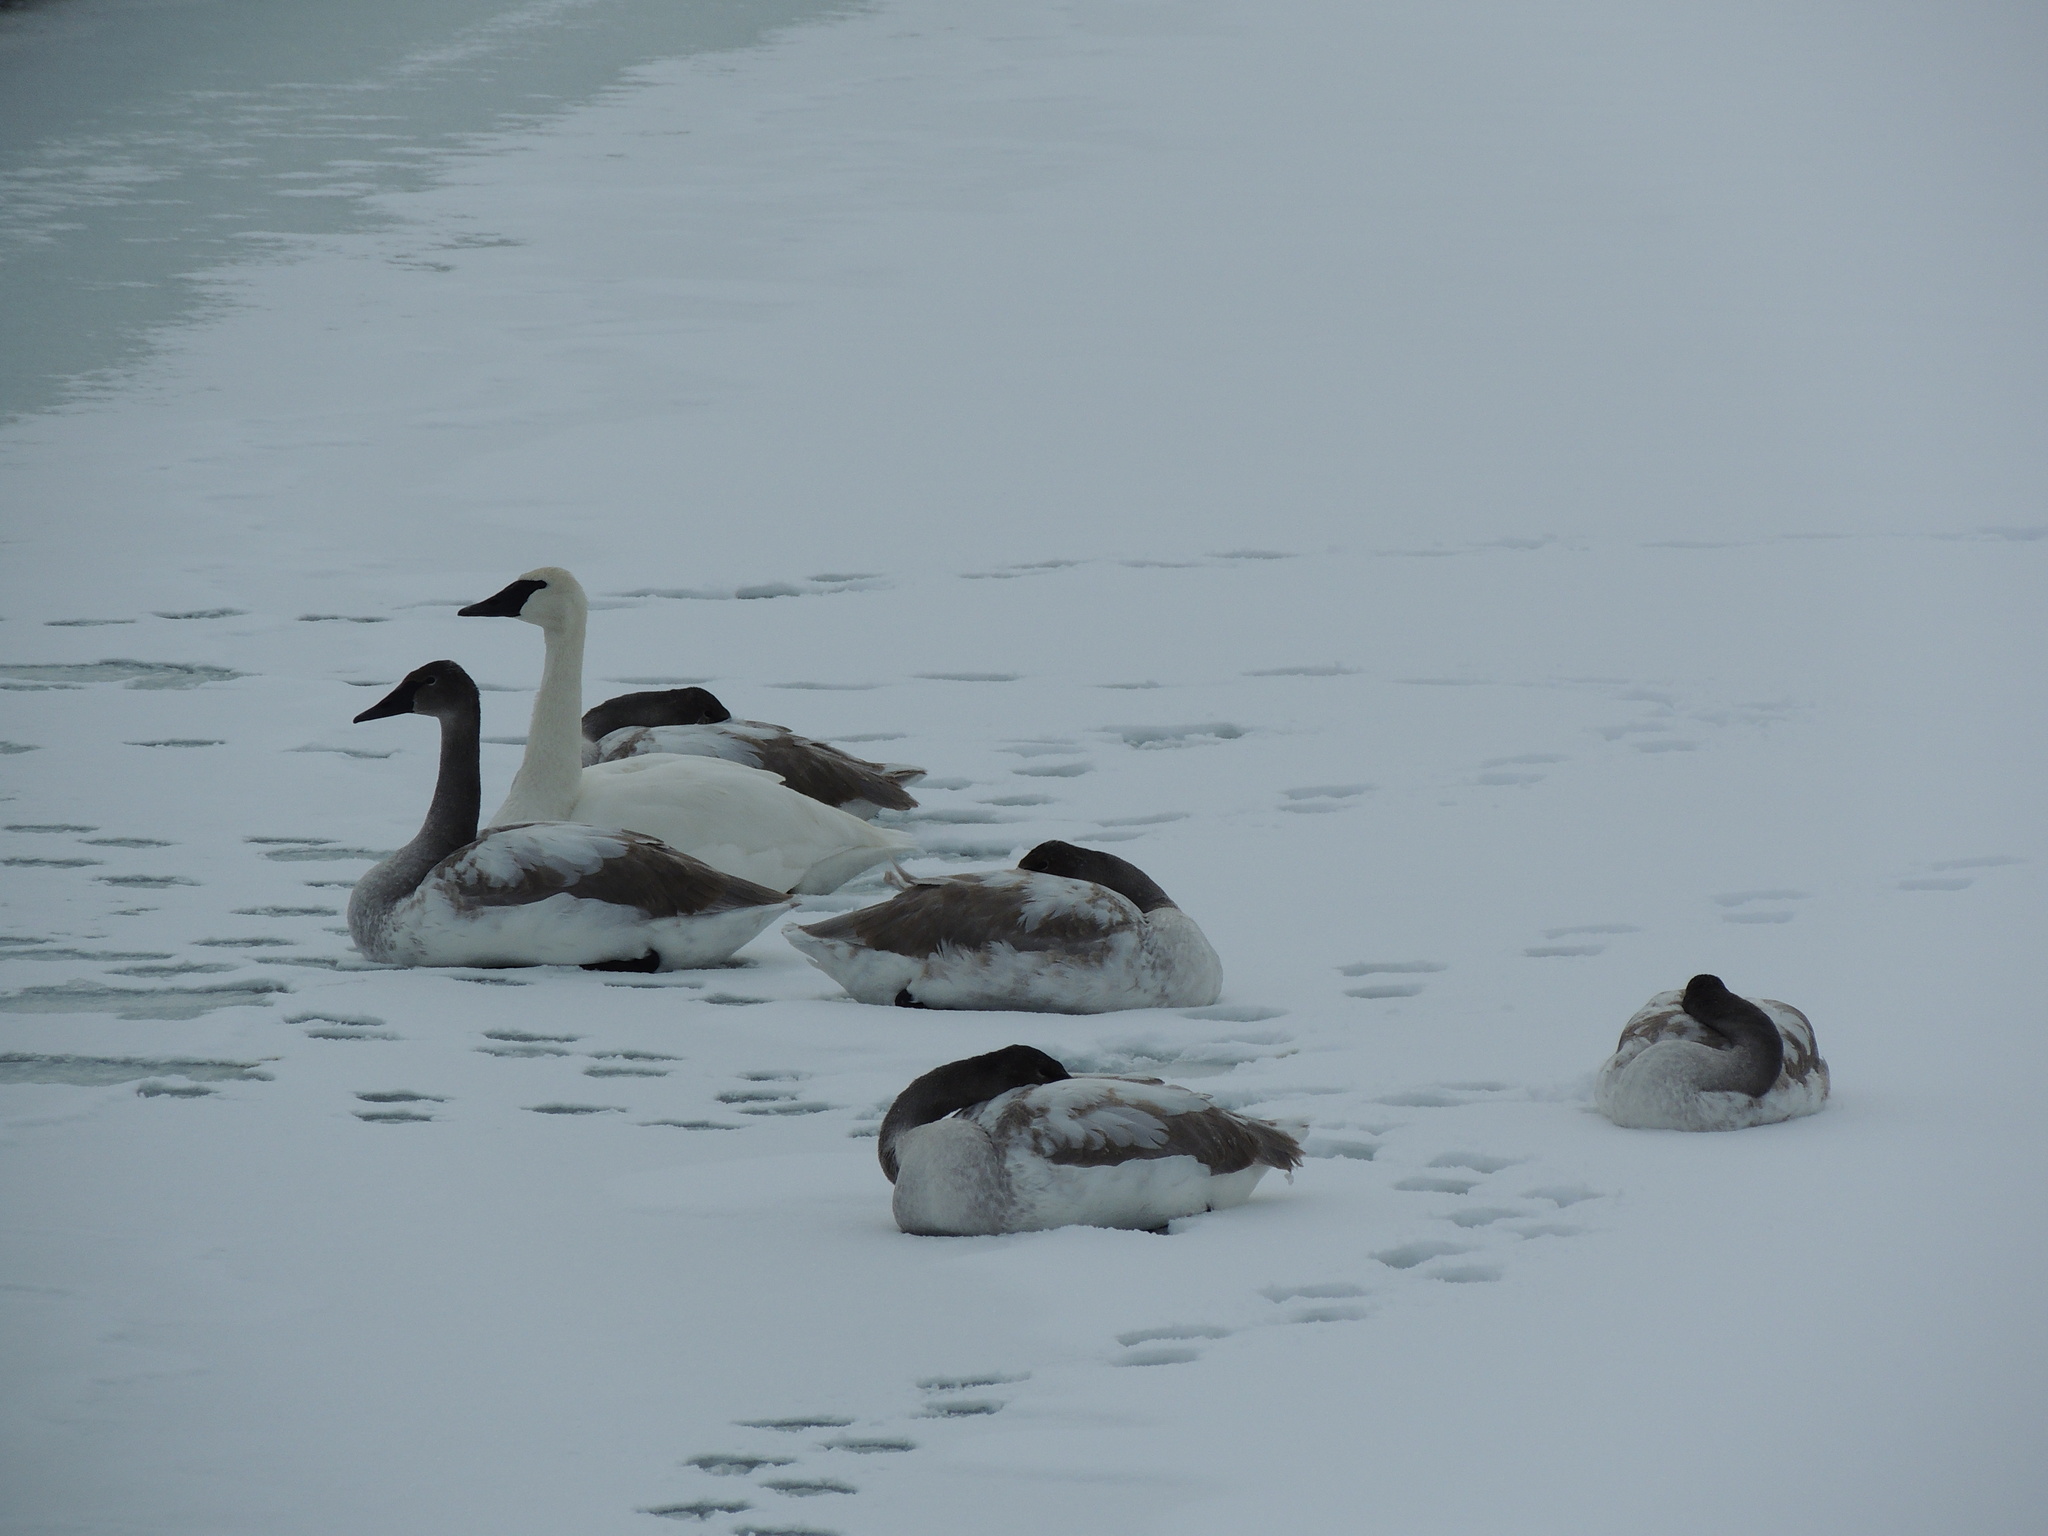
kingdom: Animalia
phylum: Chordata
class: Aves
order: Anseriformes
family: Anatidae
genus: Cygnus
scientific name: Cygnus buccinator
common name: Trumpeter swan
